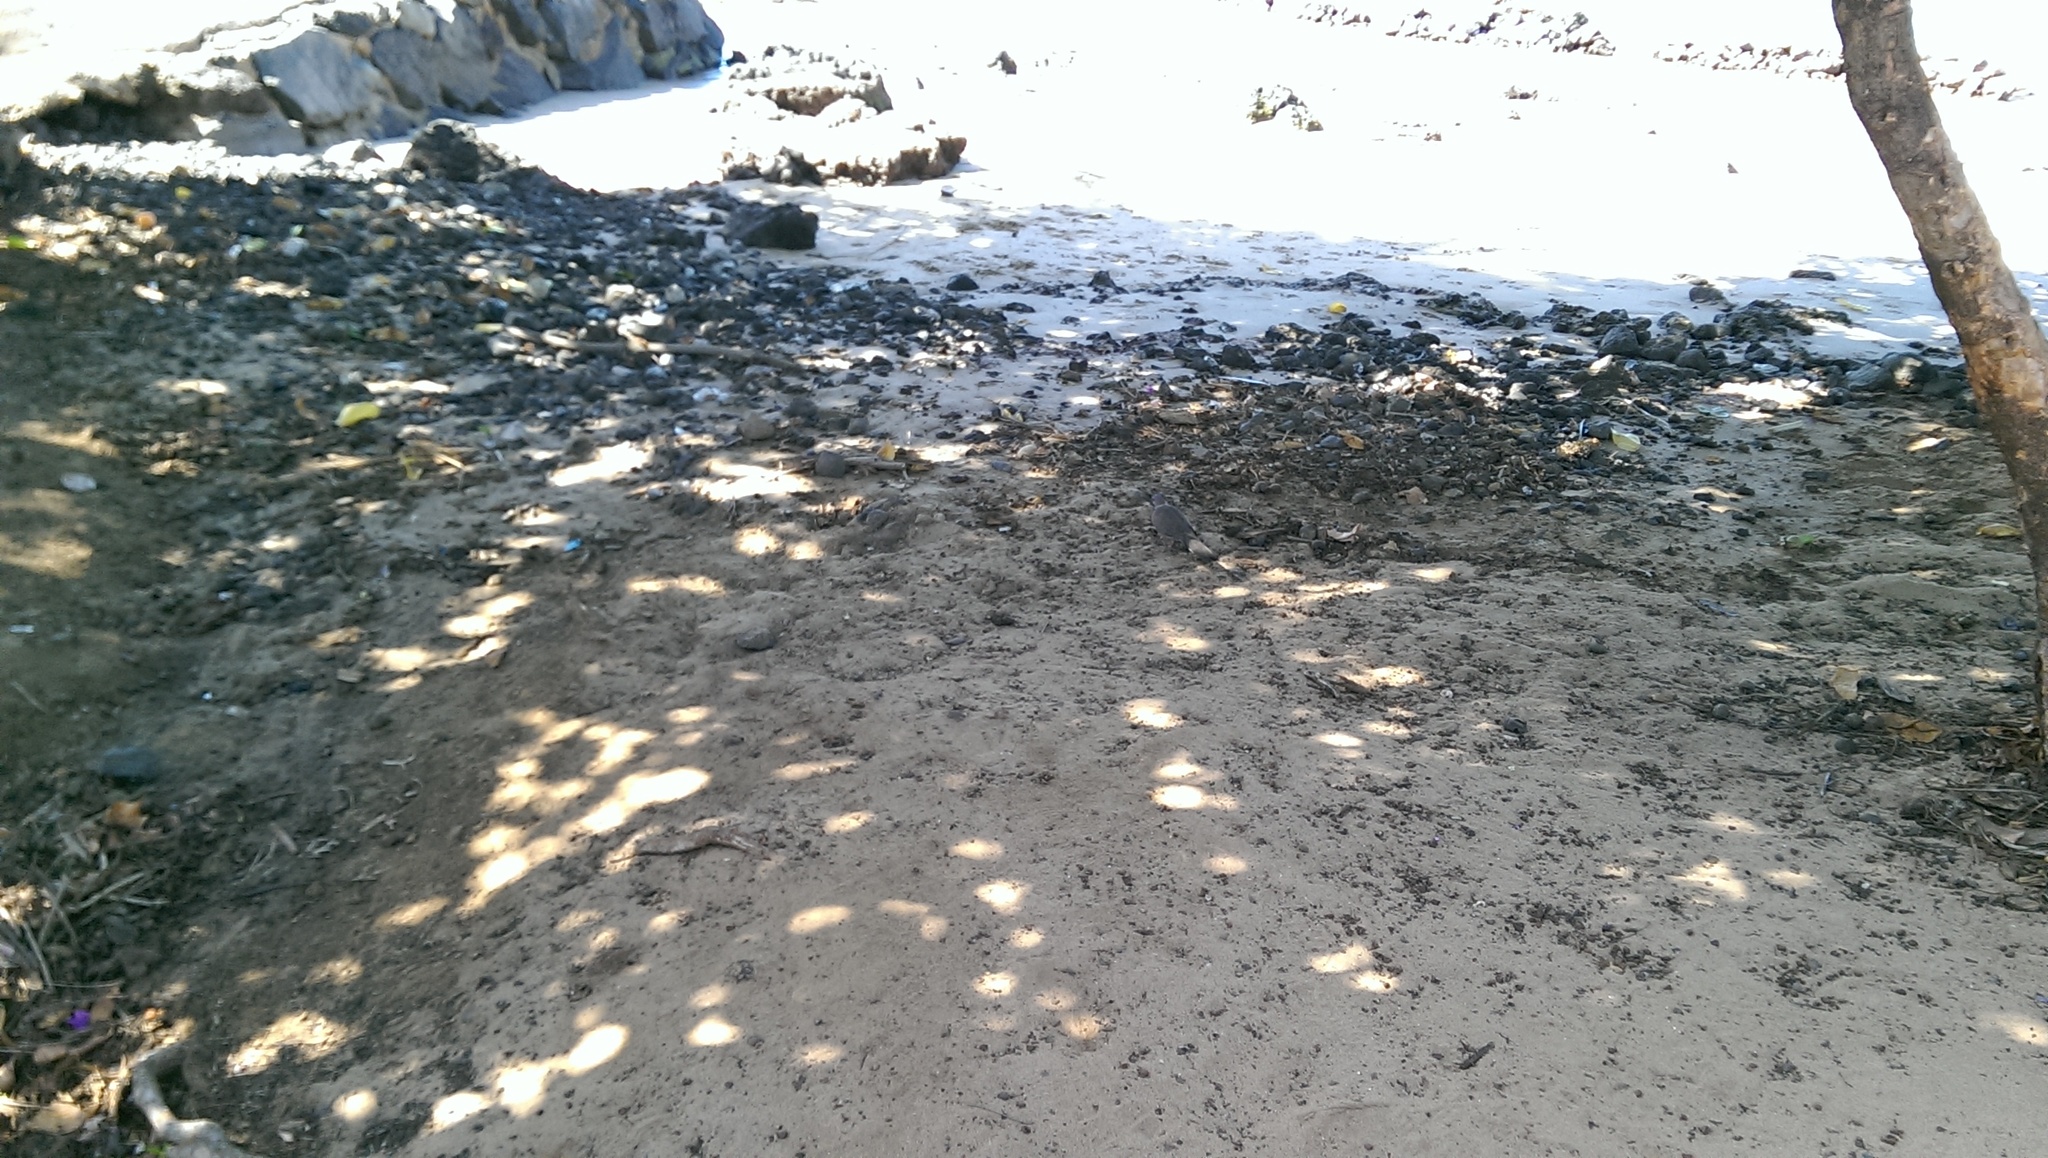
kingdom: Animalia
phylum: Chordata
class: Aves
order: Columbiformes
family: Columbidae
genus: Spilopelia
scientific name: Spilopelia chinensis
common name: Spotted dove
